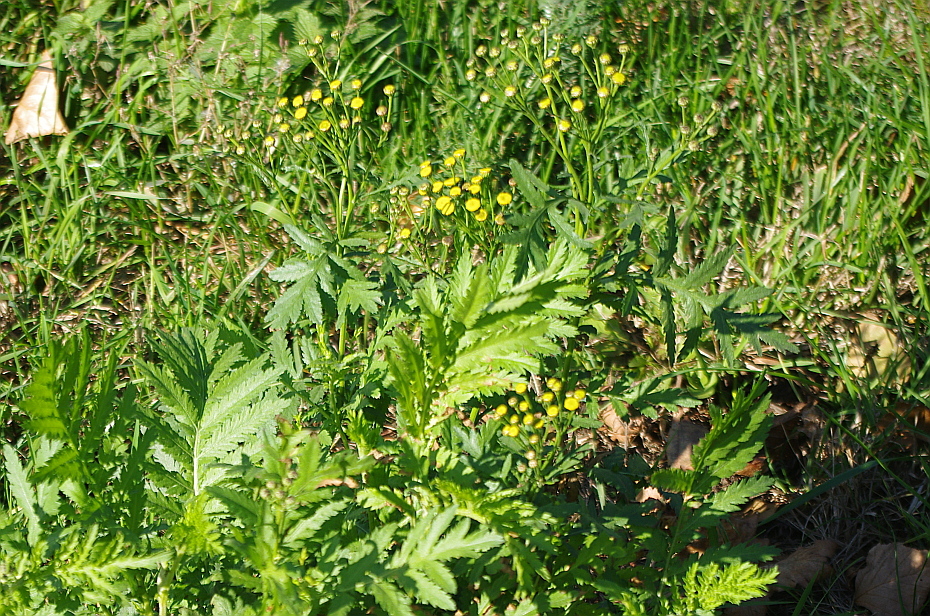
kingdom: Plantae
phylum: Tracheophyta
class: Magnoliopsida
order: Asterales
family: Asteraceae
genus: Tanacetum
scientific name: Tanacetum vulgare
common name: Common tansy
